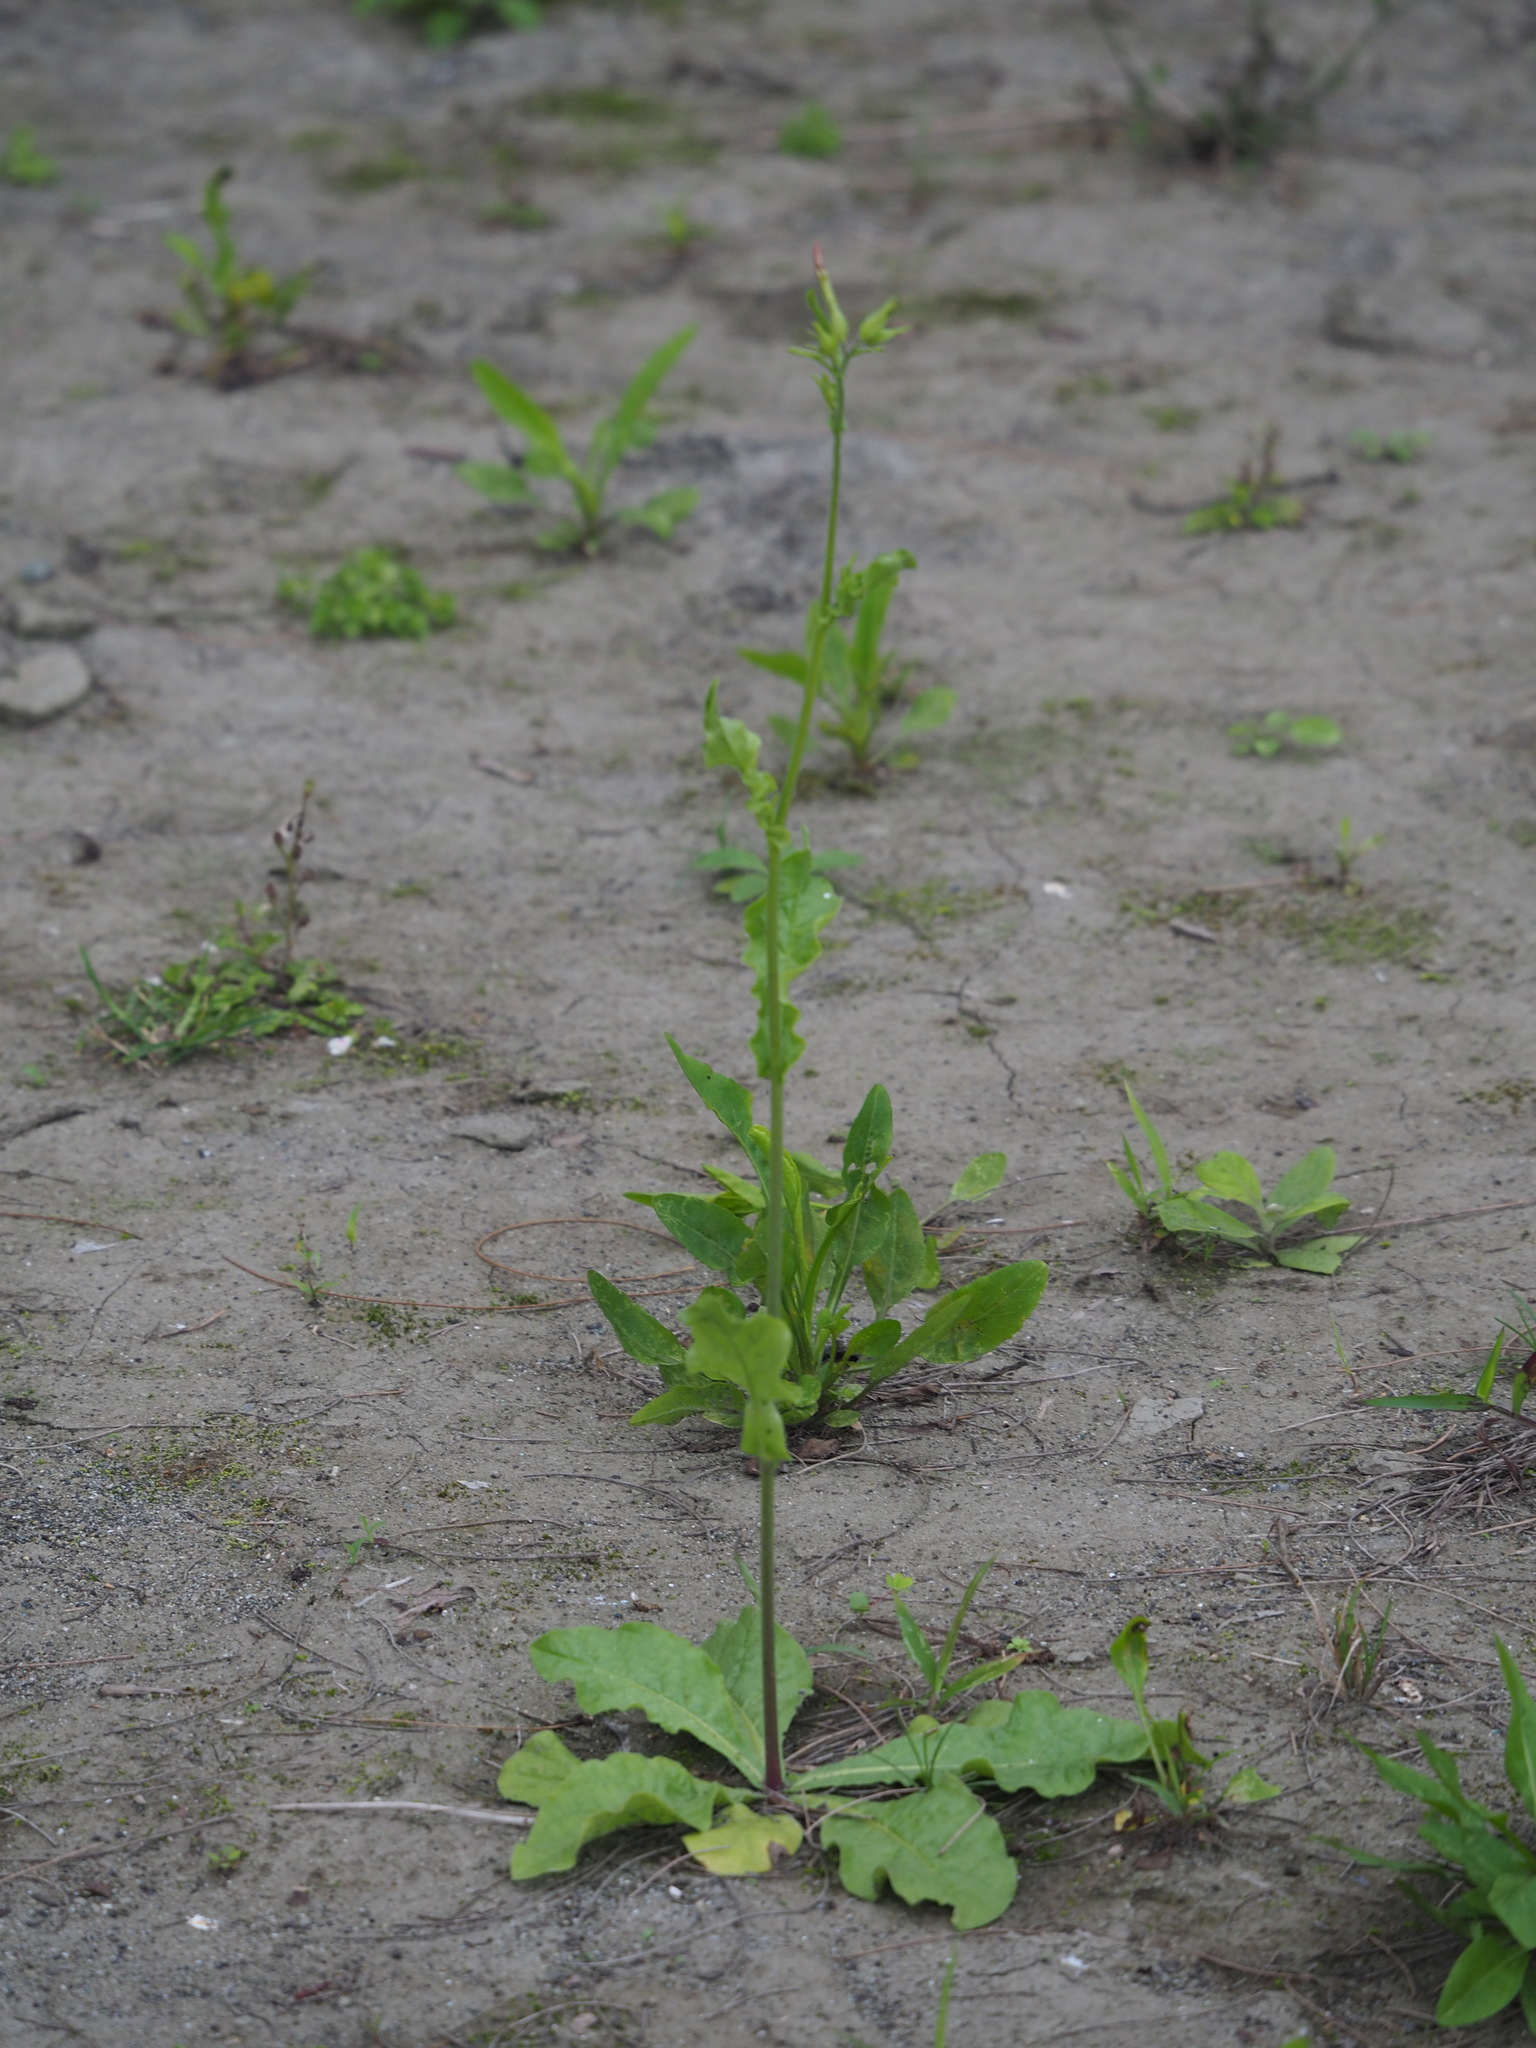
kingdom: Plantae
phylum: Tracheophyta
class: Magnoliopsida
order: Solanales
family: Solanaceae
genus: Nicotiana
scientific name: Nicotiana plumbaginifolia
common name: Tex-mex tobacco
